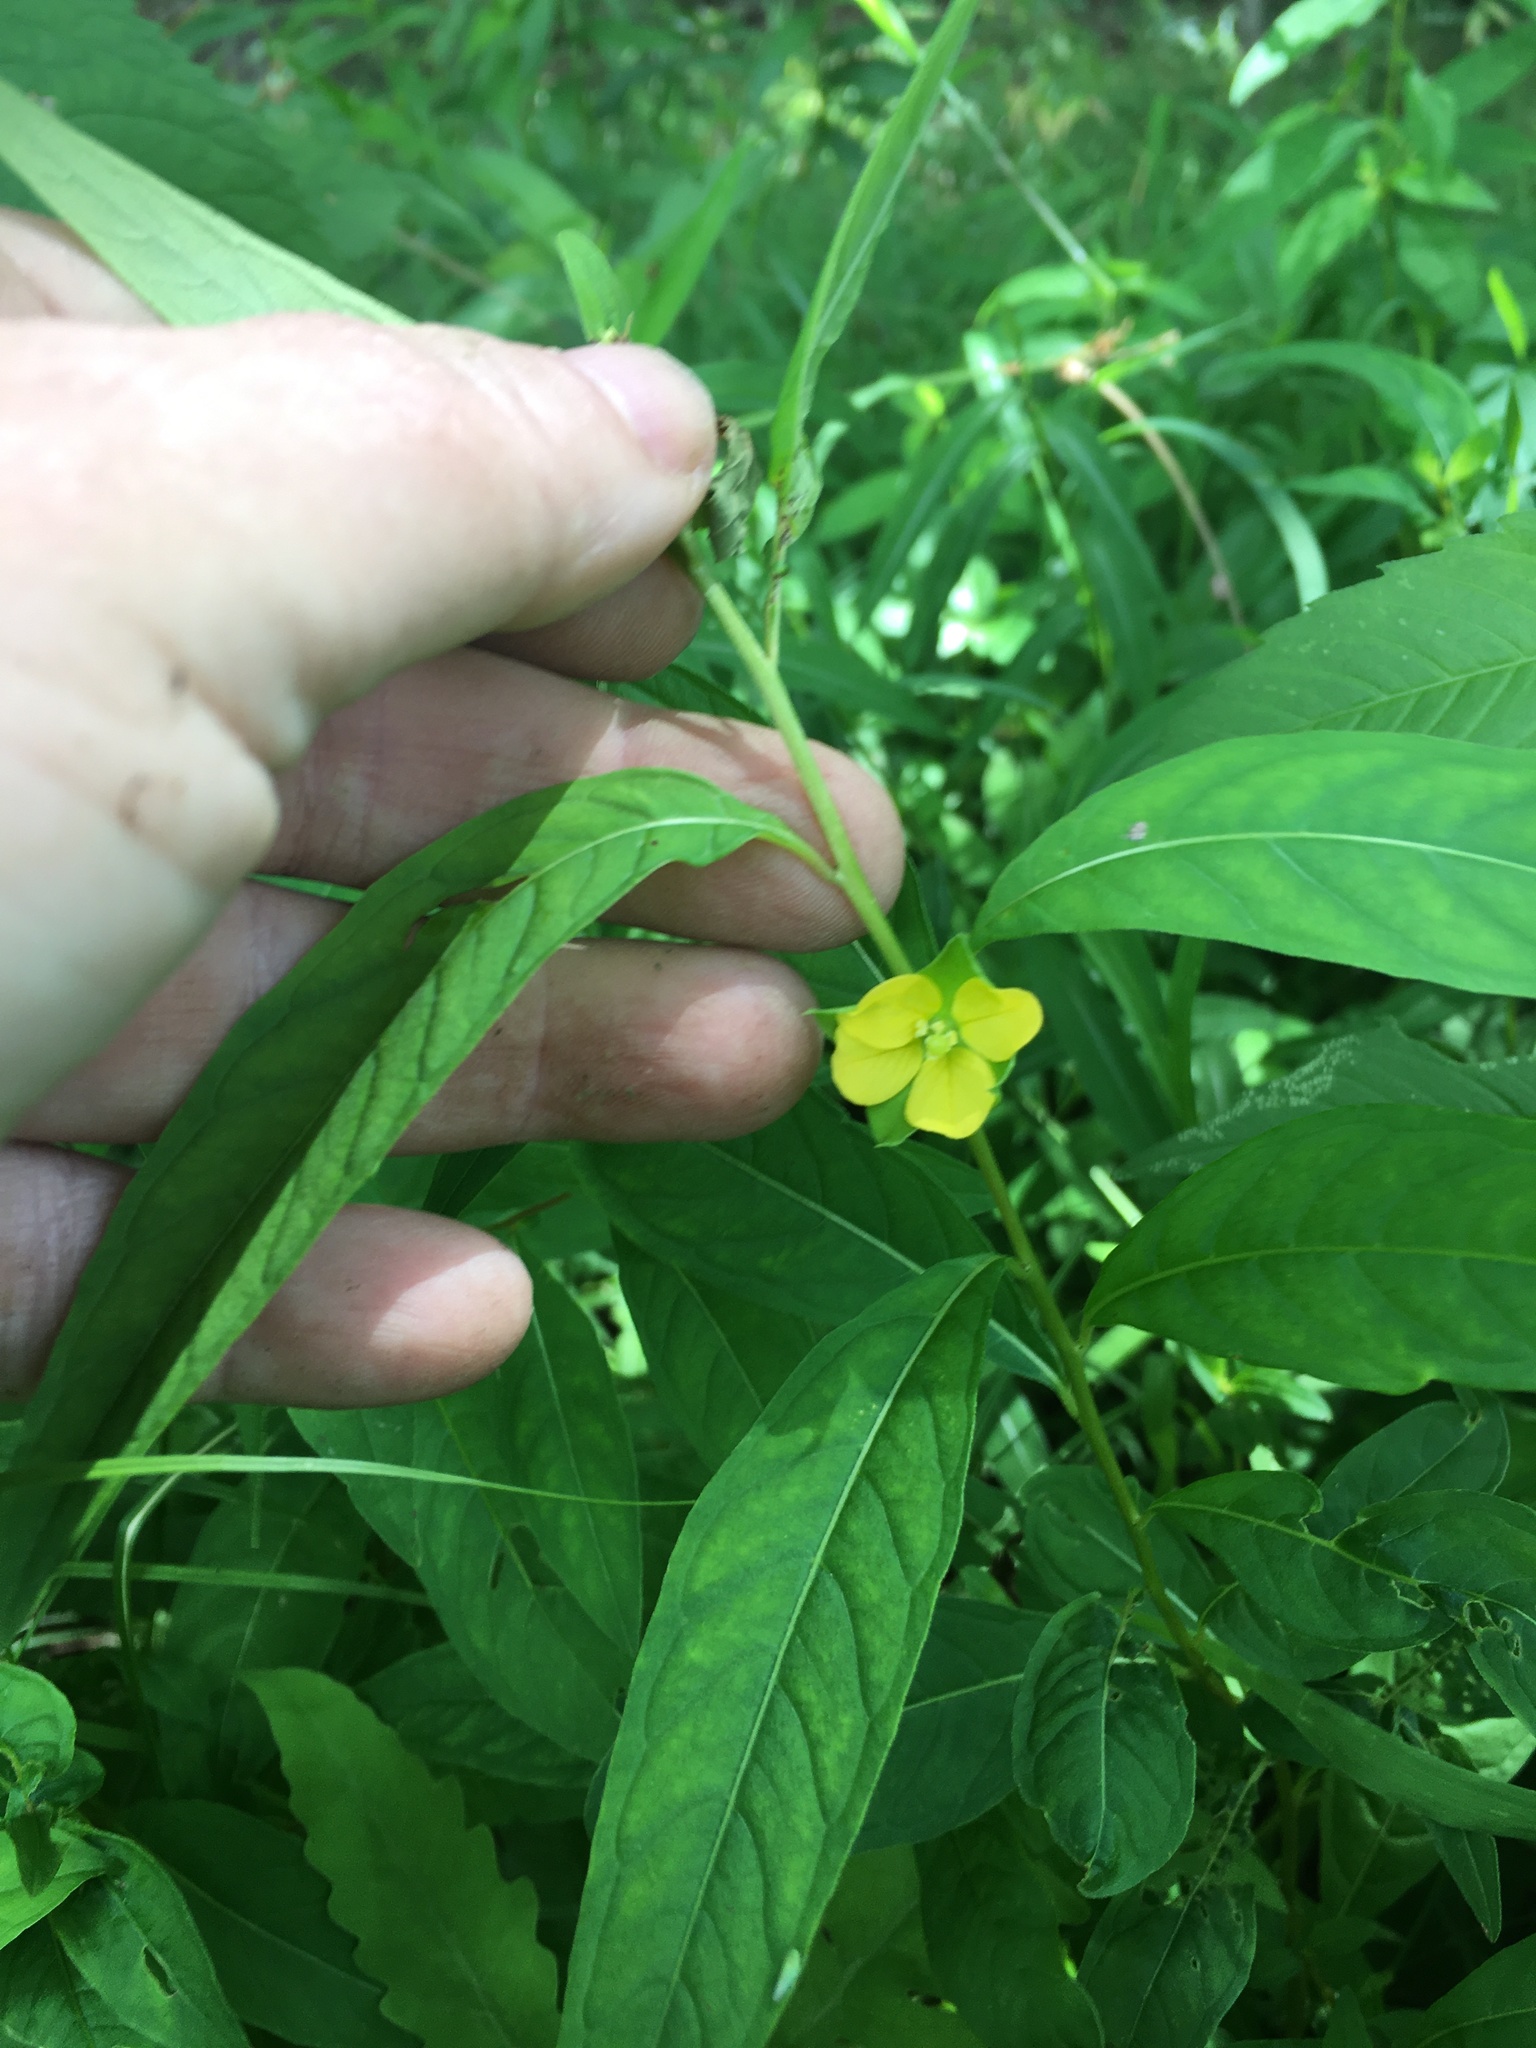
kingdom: Plantae
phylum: Tracheophyta
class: Magnoliopsida
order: Myrtales
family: Onagraceae
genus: Ludwigia
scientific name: Ludwigia alternifolia
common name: Rattlebox
